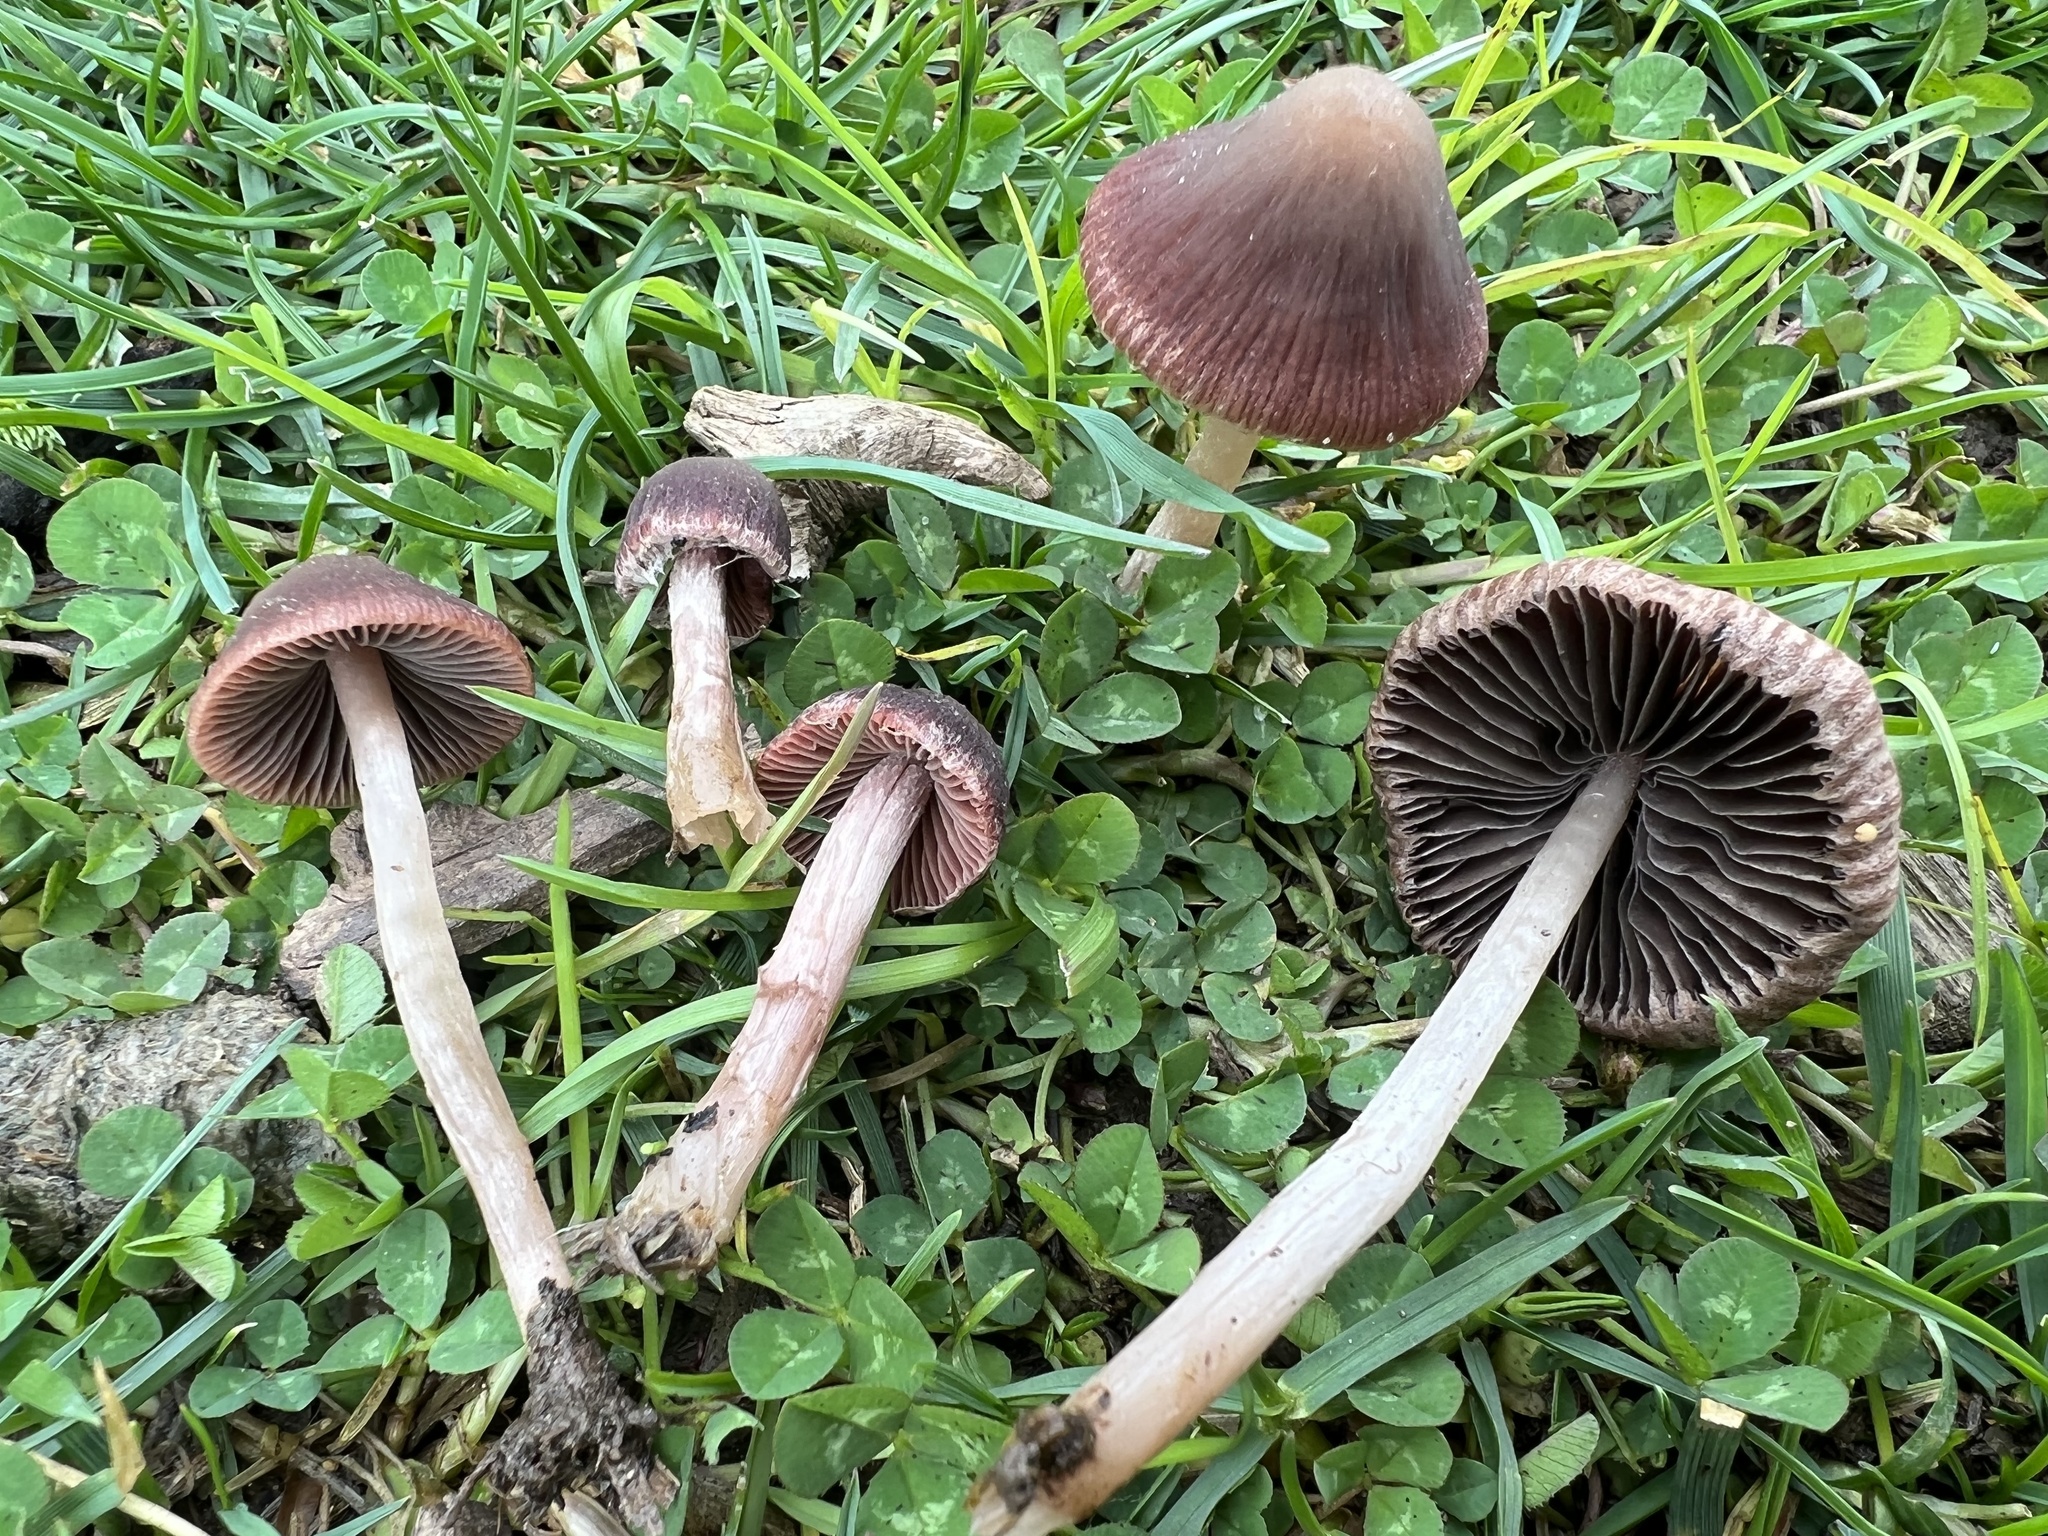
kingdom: Fungi
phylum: Basidiomycota
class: Agaricomycetes
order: Agaricales
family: Psathyrellaceae
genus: Psathyrella
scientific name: Psathyrella bipellis
